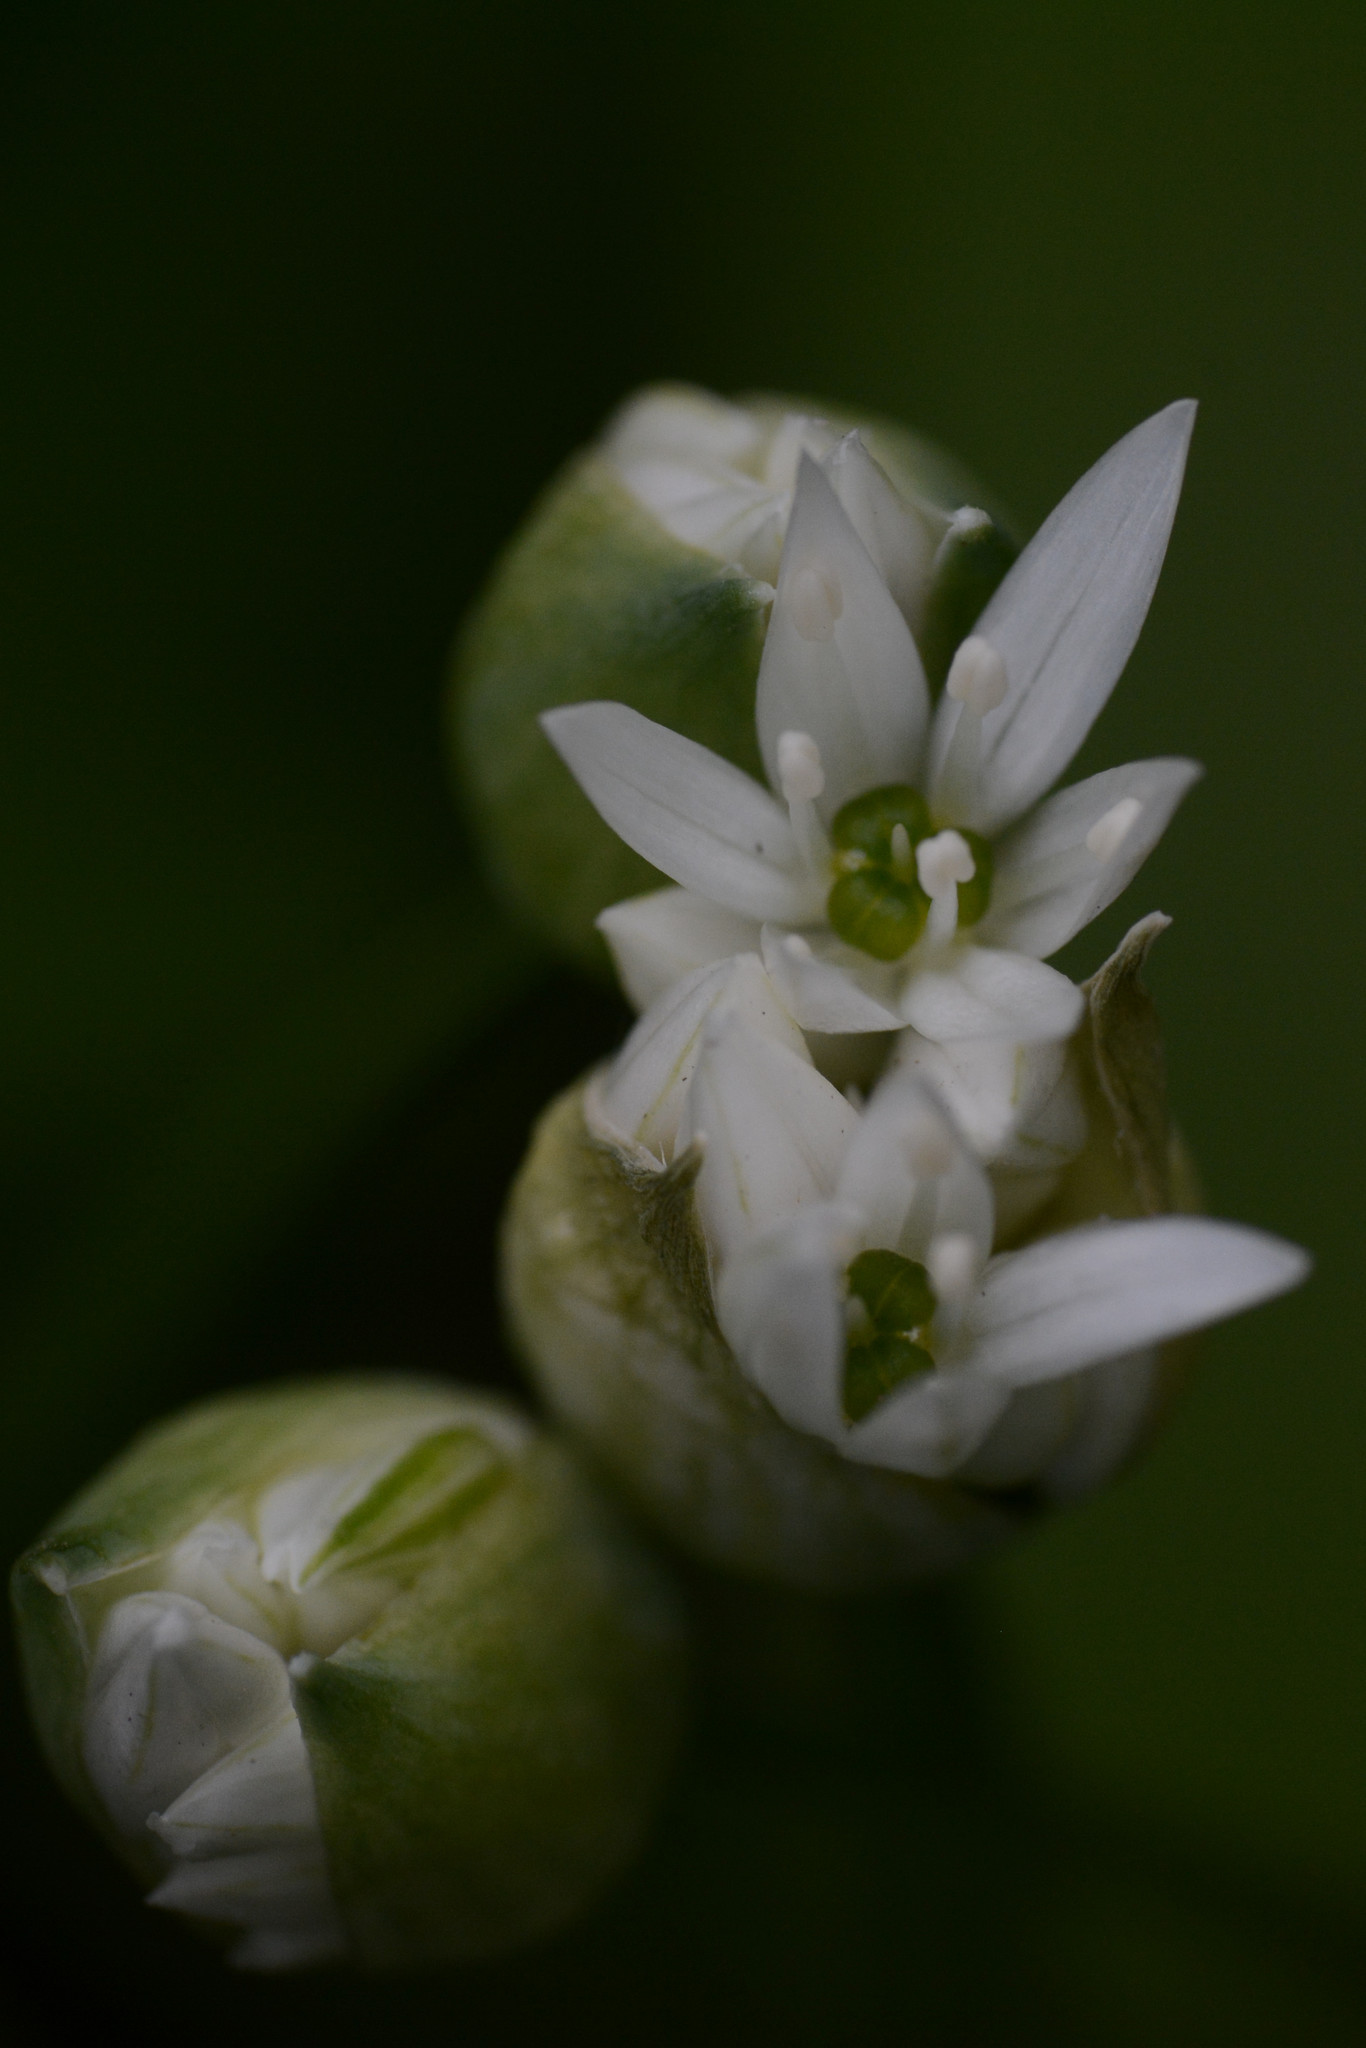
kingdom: Plantae
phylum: Tracheophyta
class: Liliopsida
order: Asparagales
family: Amaryllidaceae
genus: Allium
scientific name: Allium ursinum
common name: Ramsons
